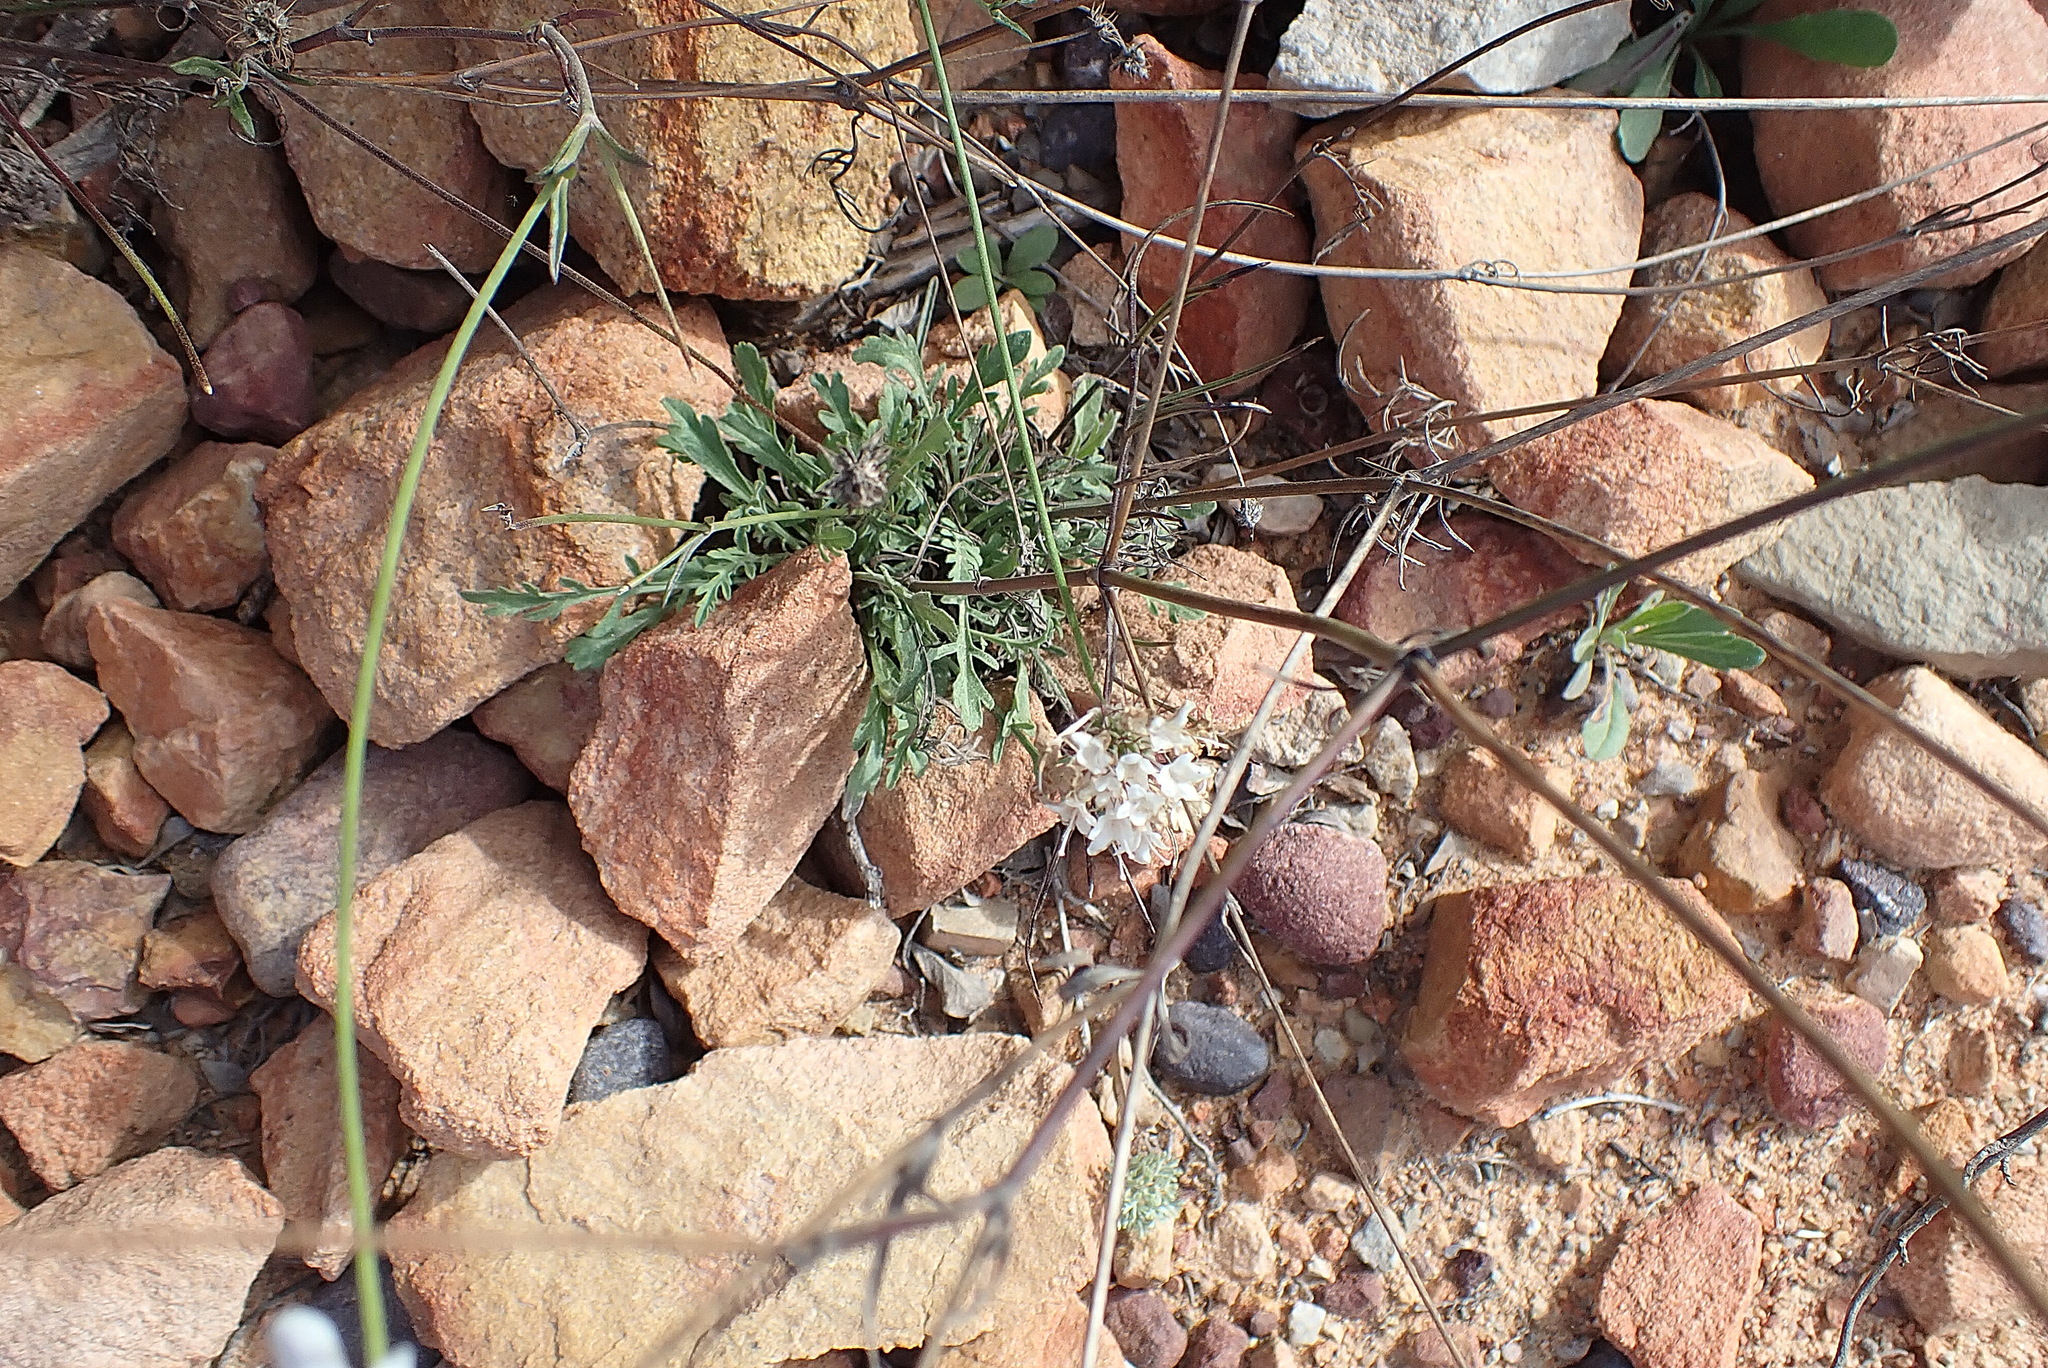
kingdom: Plantae
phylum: Tracheophyta
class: Magnoliopsida
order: Dipsacales
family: Caprifoliaceae
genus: Scabiosa
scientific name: Scabiosa columbaria
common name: Small scabious
